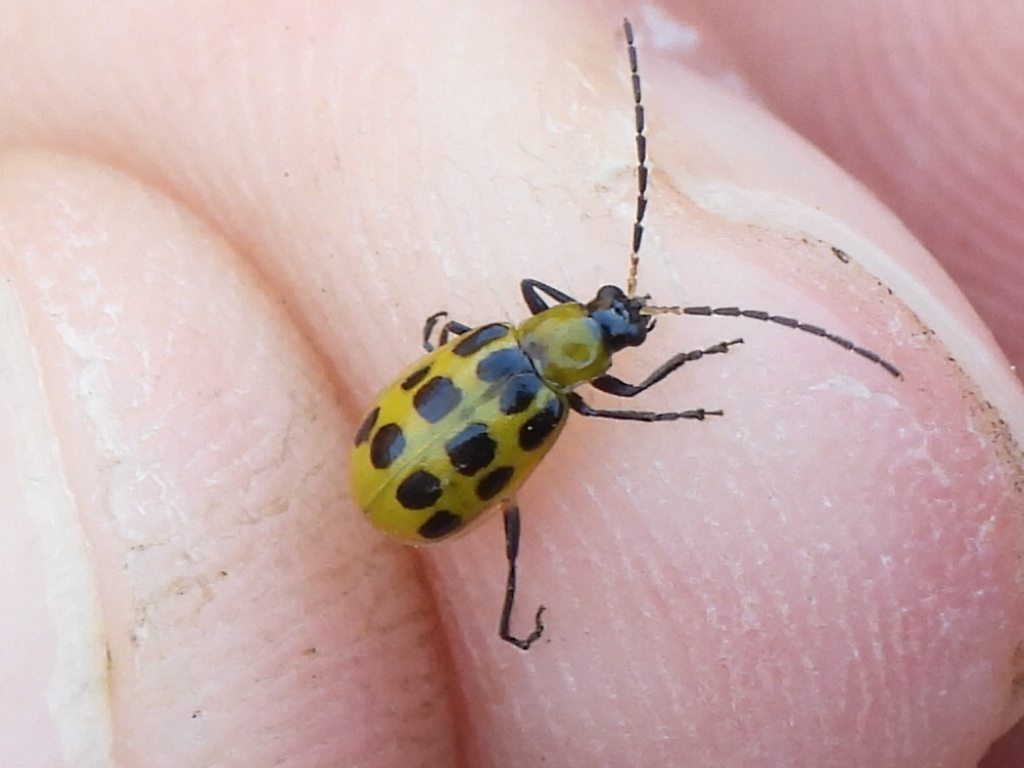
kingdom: Animalia
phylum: Arthropoda
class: Insecta
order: Coleoptera
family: Chrysomelidae
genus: Diabrotica
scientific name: Diabrotica undecimpunctata
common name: Spotted cucumber beetle
